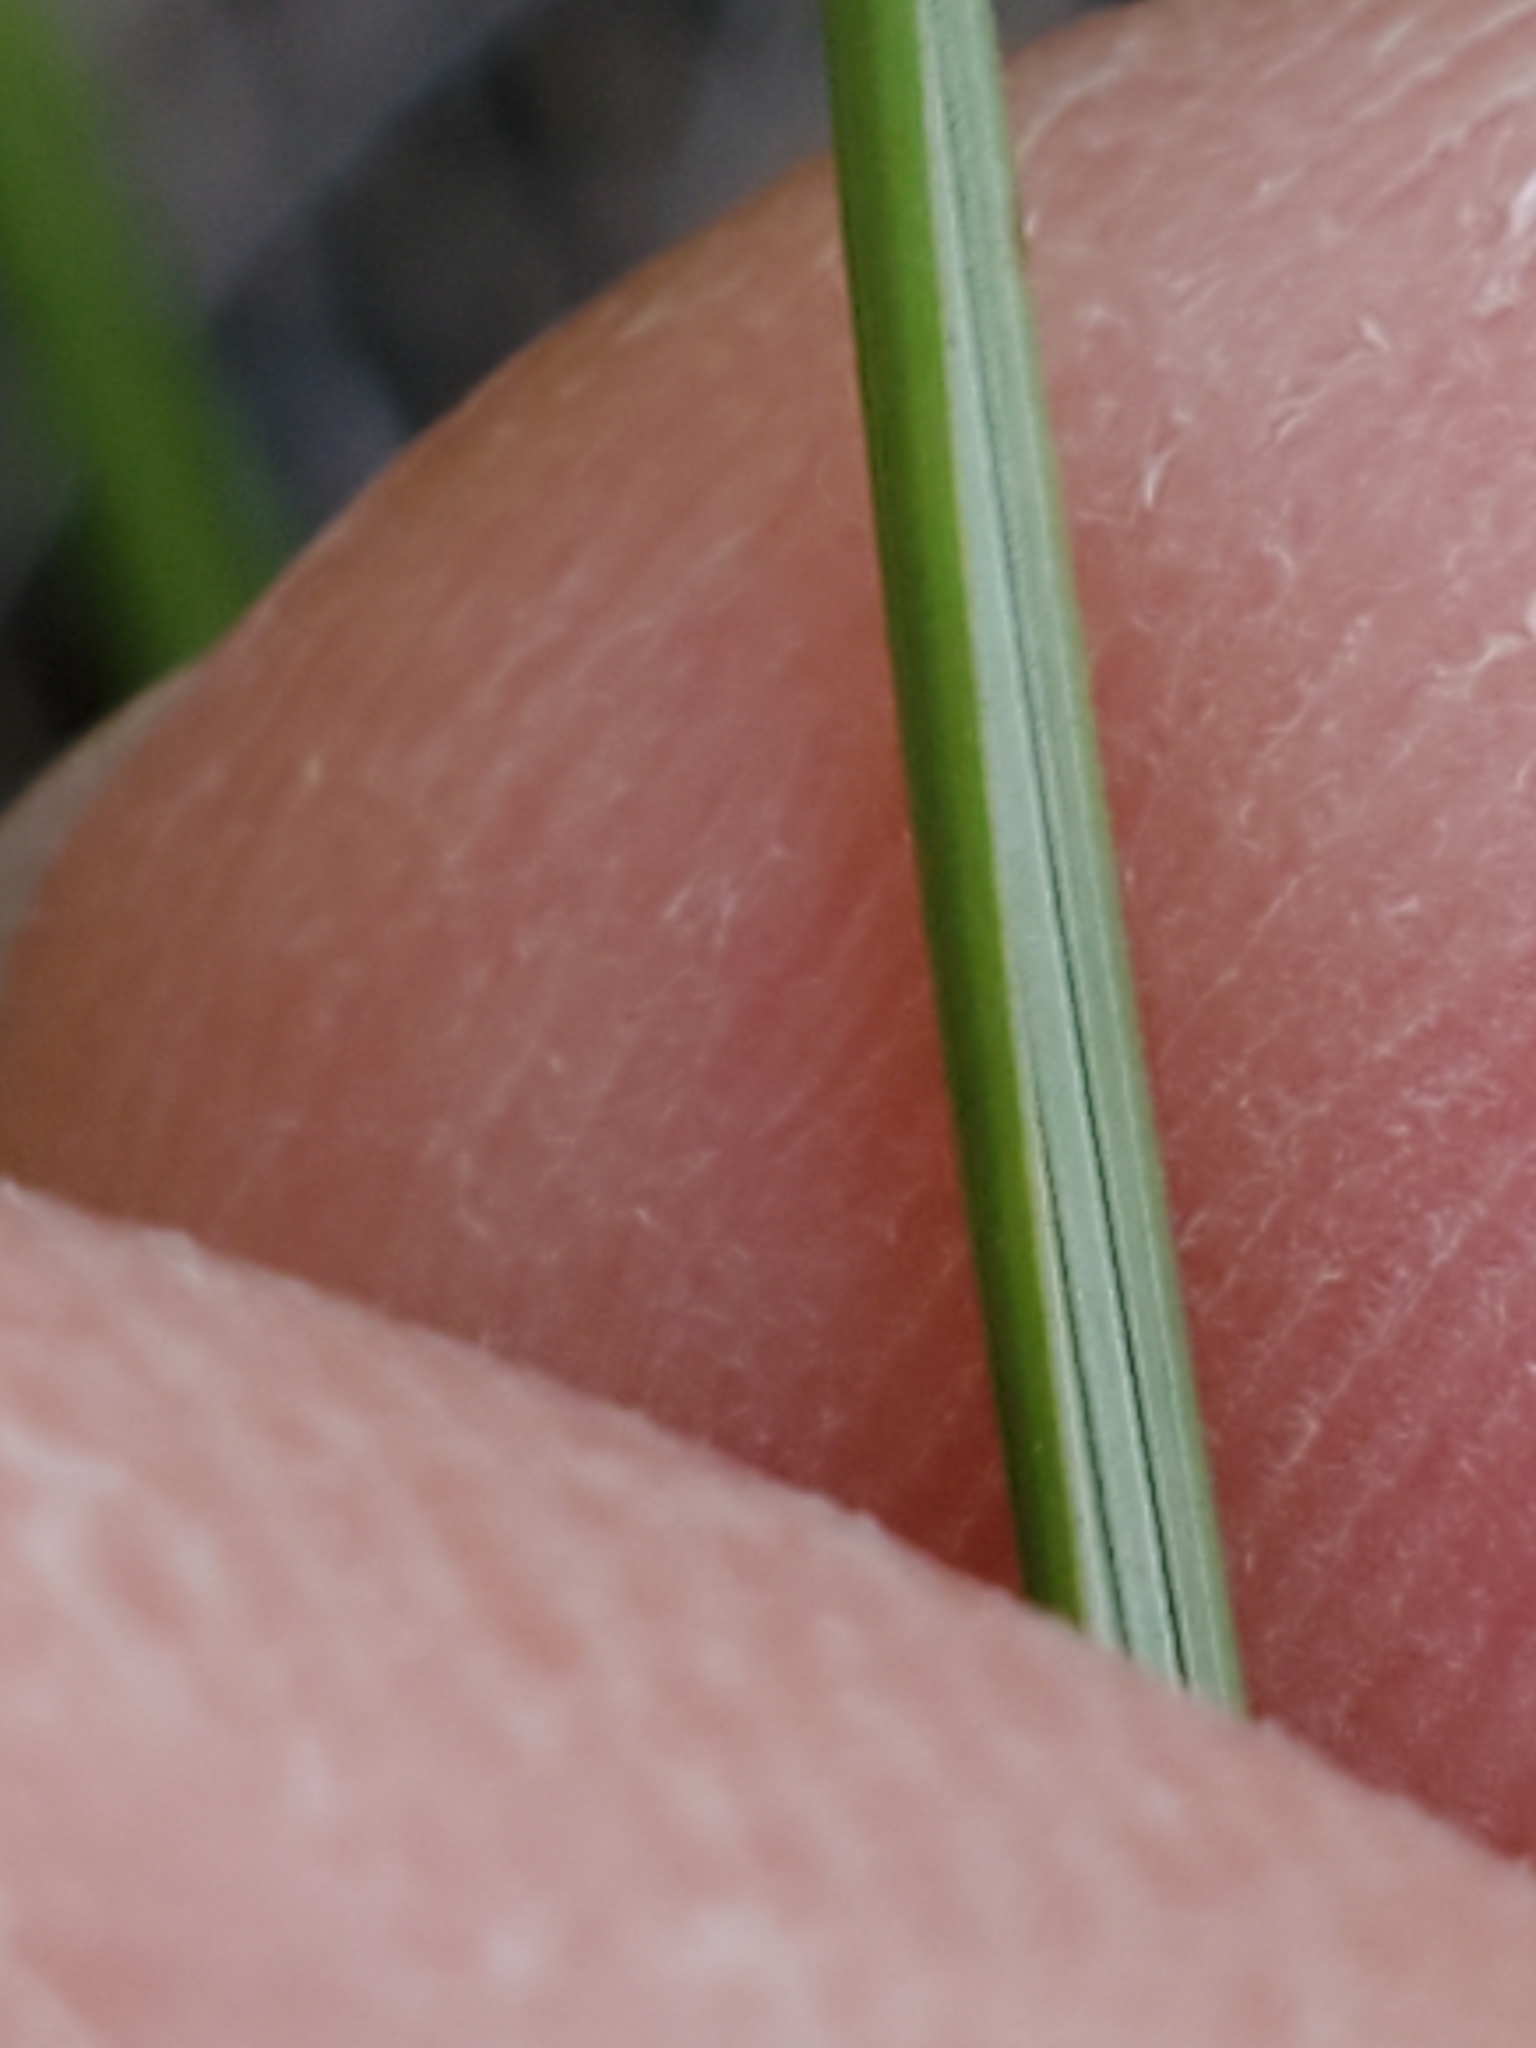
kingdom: Plantae
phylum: Tracheophyta
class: Liliopsida
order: Asparagales
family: Asparagaceae
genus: Nolina
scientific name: Nolina texana
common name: Texas sacahuiste
